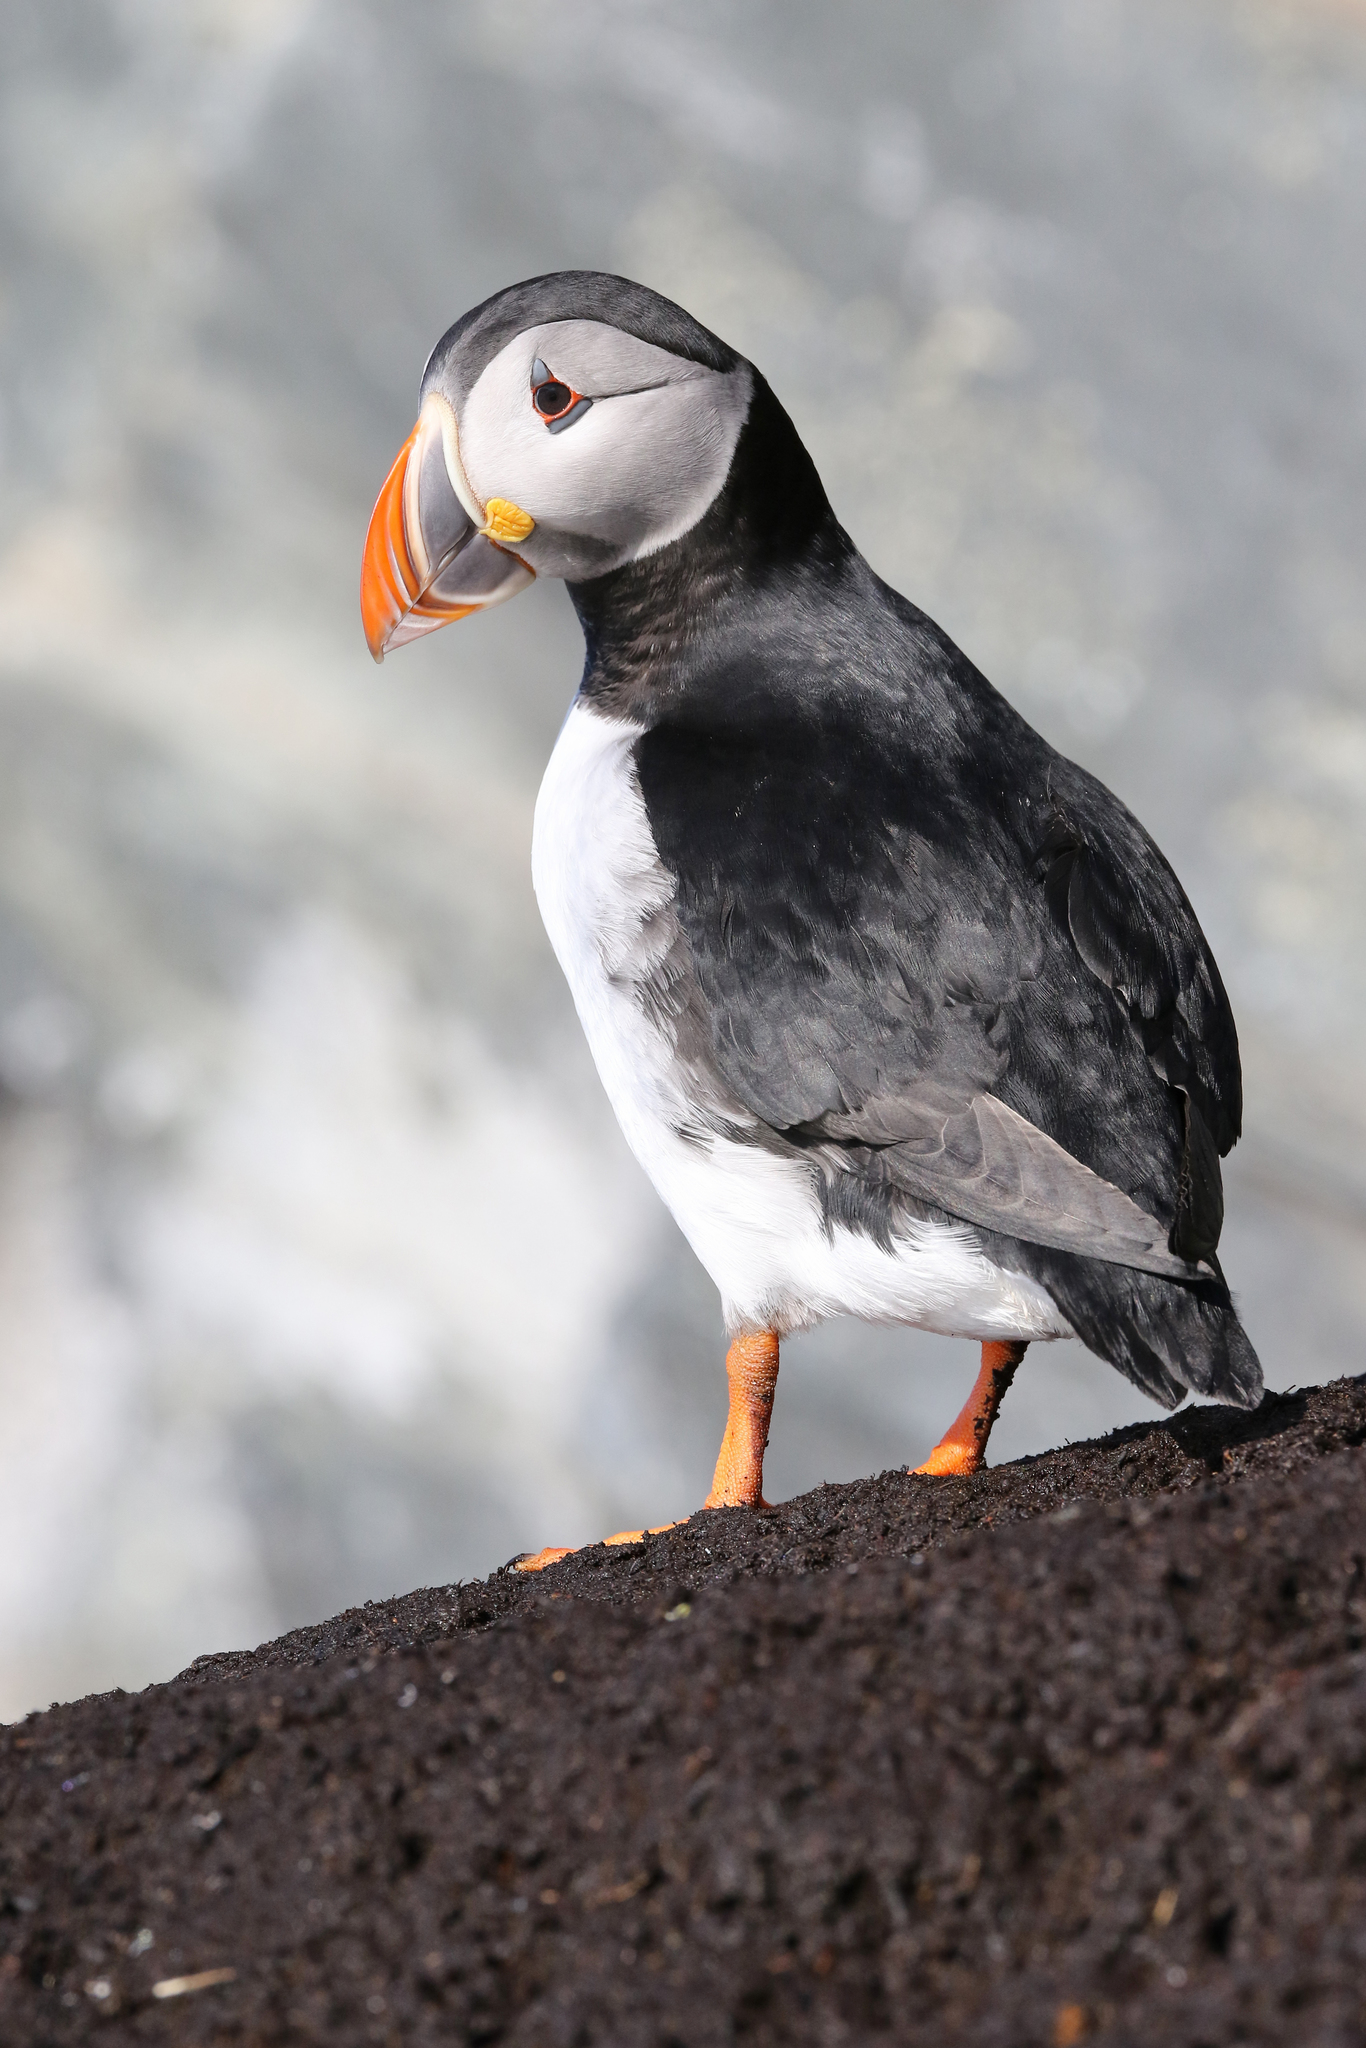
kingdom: Animalia
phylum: Chordata
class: Aves
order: Charadriiformes
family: Alcidae
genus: Fratercula
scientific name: Fratercula arctica
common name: Atlantic puffin
